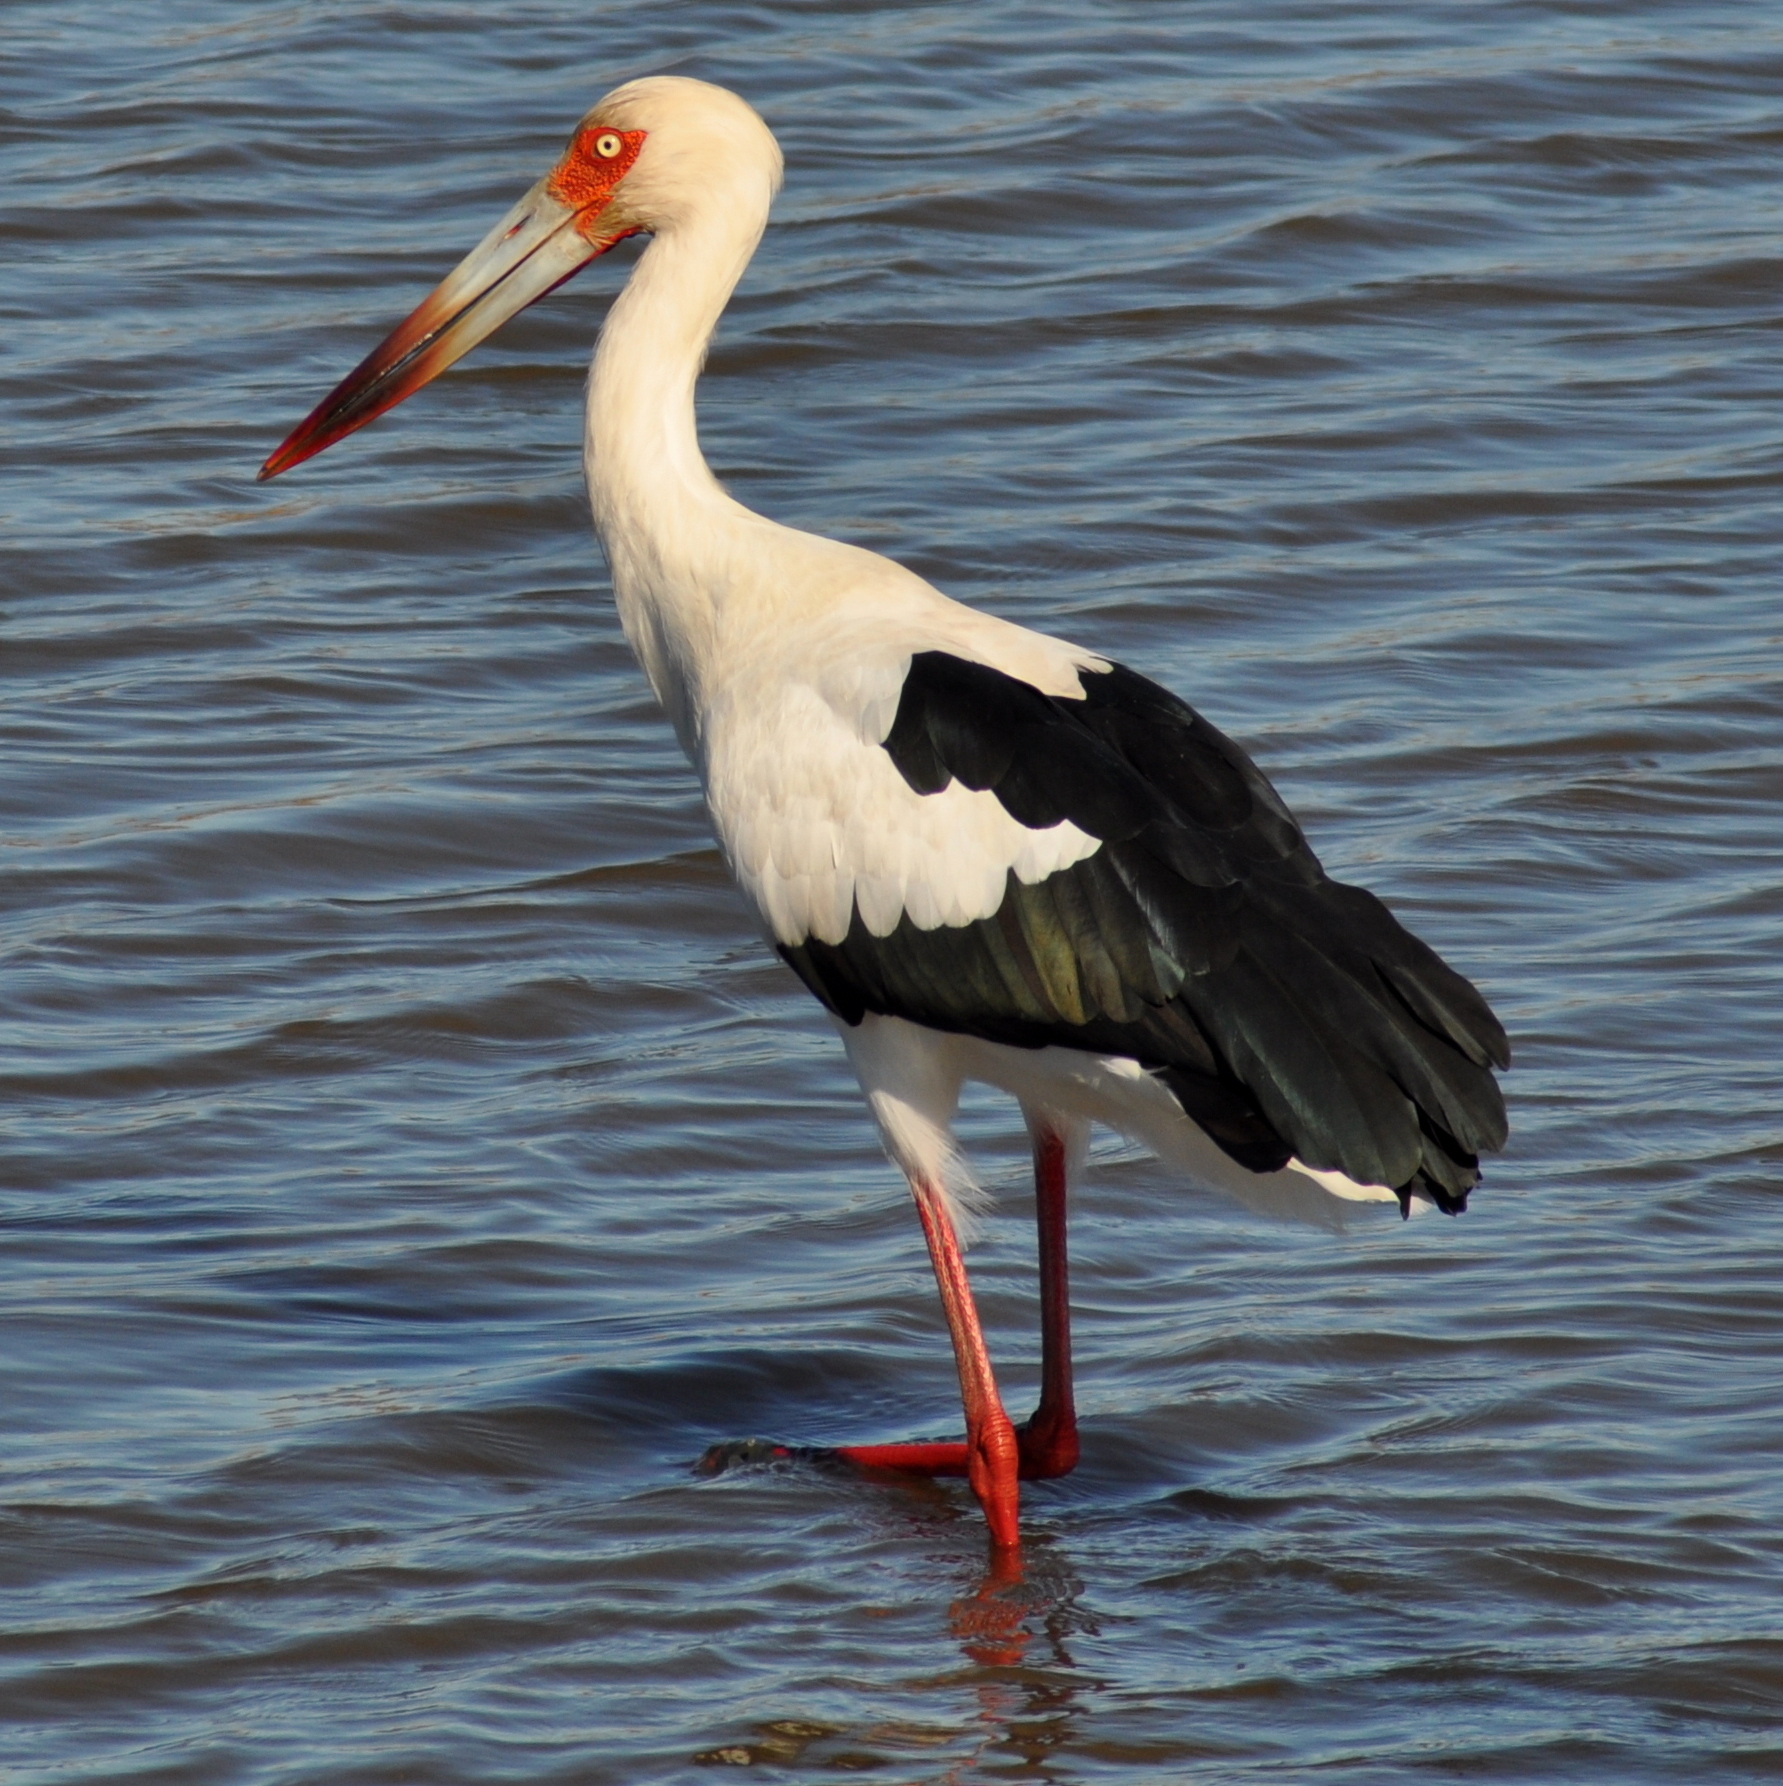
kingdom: Animalia
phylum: Chordata
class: Aves
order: Ciconiiformes
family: Ciconiidae
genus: Ciconia
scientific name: Ciconia maguari
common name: Maguari stork
